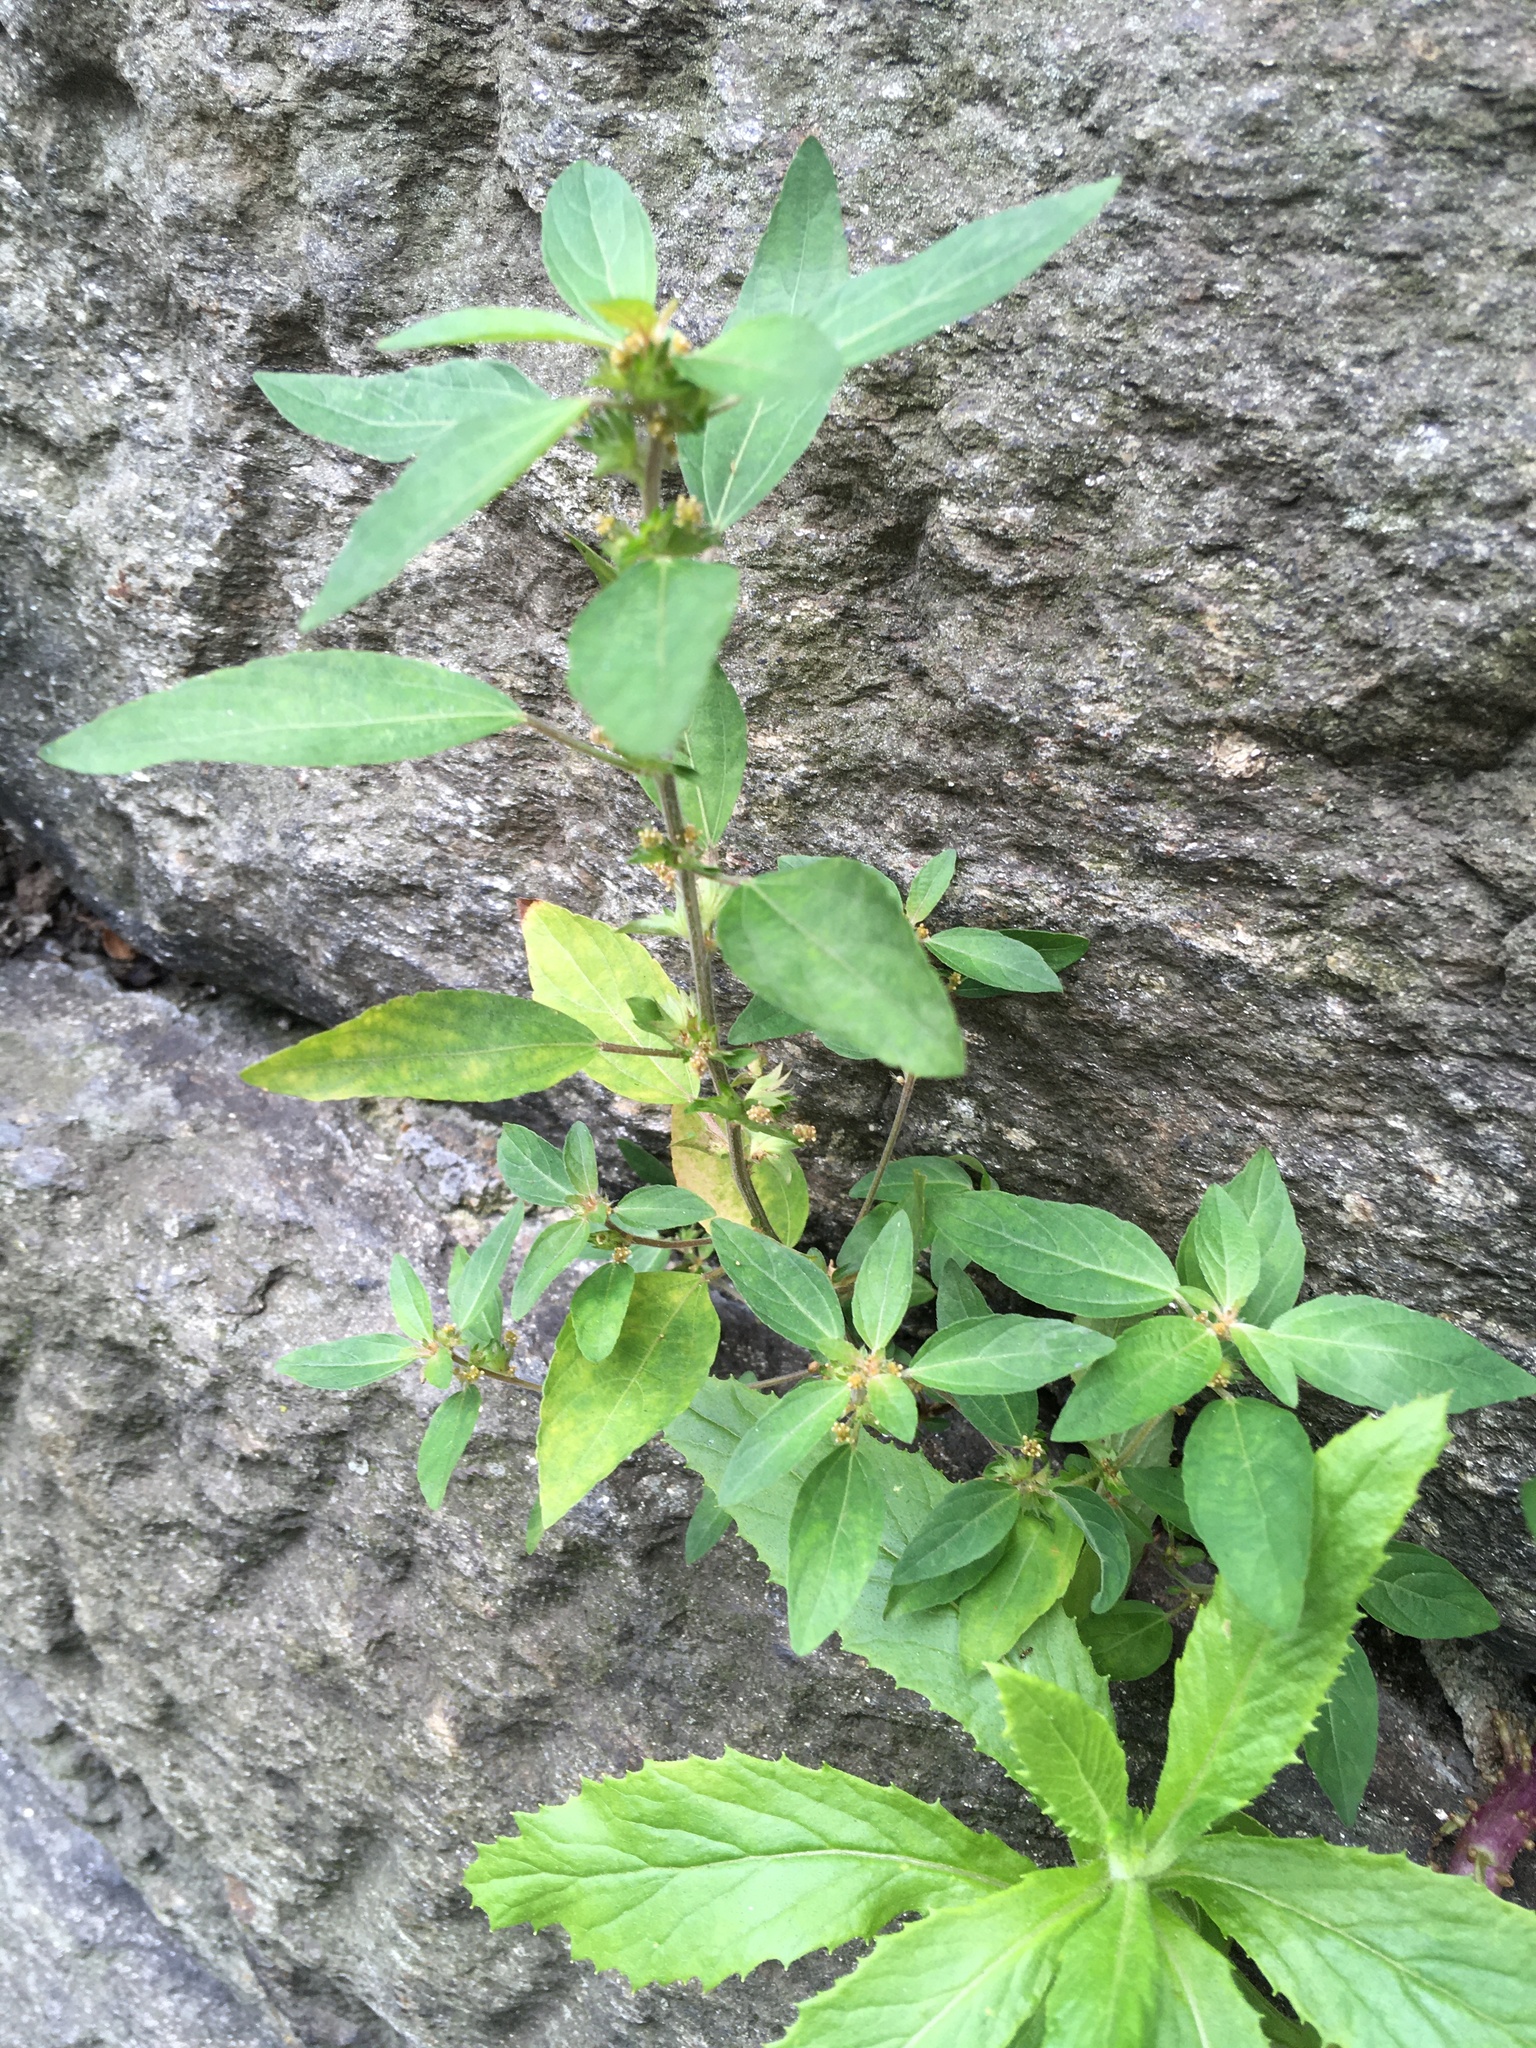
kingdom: Plantae
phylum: Tracheophyta
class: Magnoliopsida
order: Malpighiales
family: Euphorbiaceae
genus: Acalypha
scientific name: Acalypha rhomboidea
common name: Rhombic copperleaf
